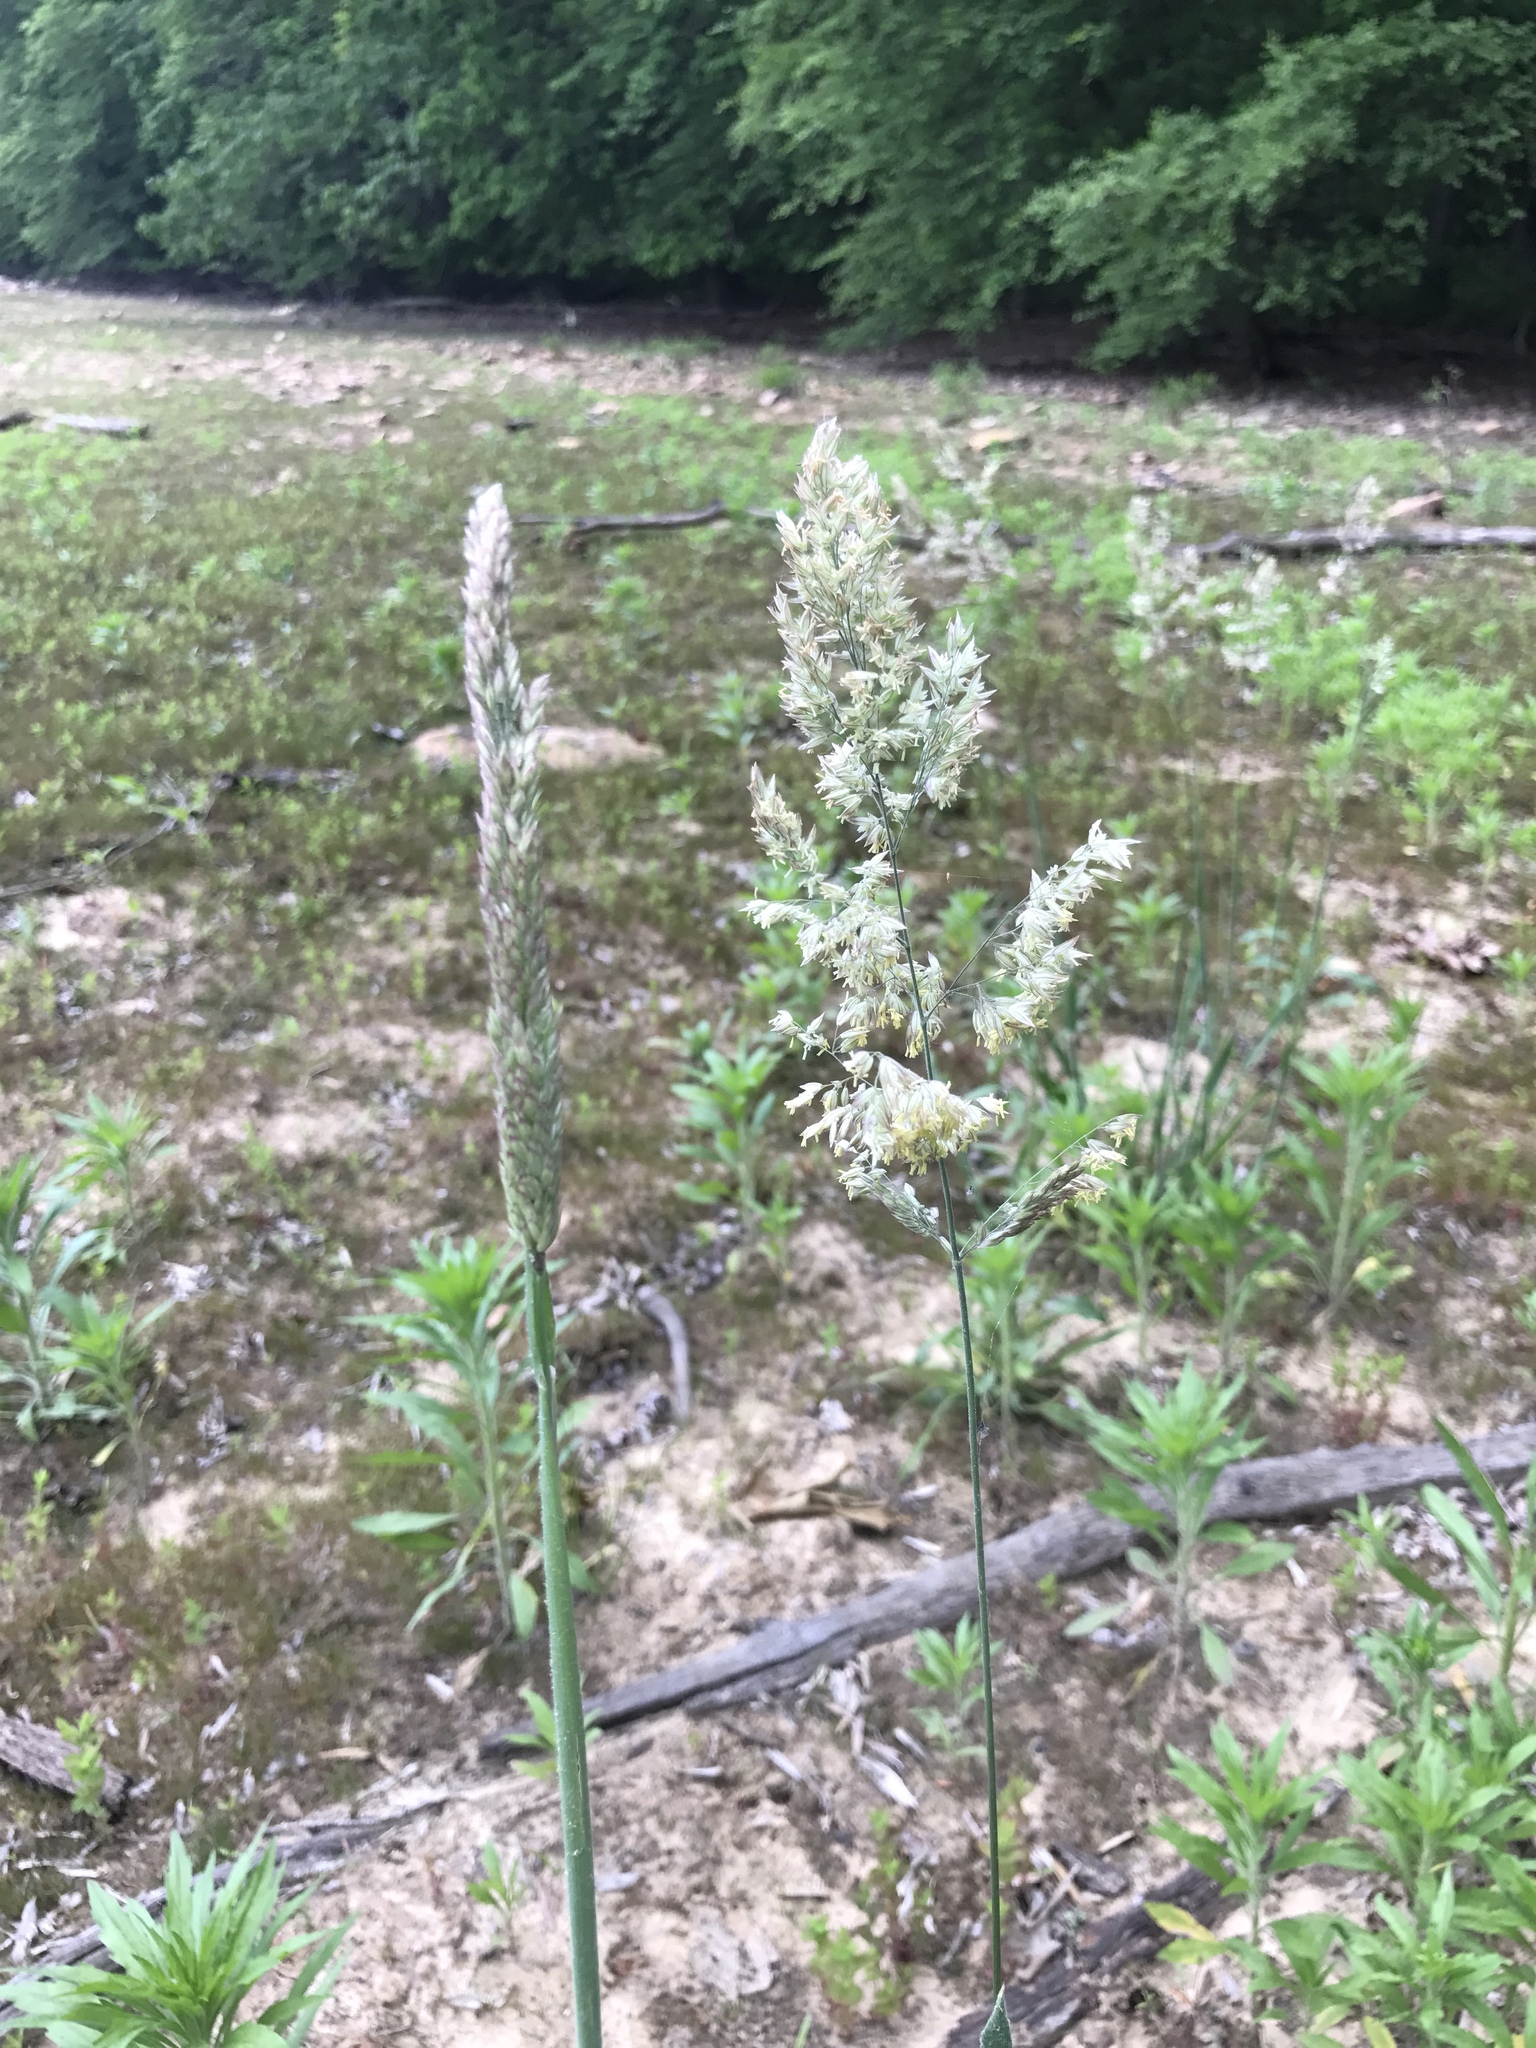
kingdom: Plantae
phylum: Tracheophyta
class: Liliopsida
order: Poales
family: Poaceae
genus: Holcus
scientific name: Holcus lanatus
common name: Yorkshire-fog
